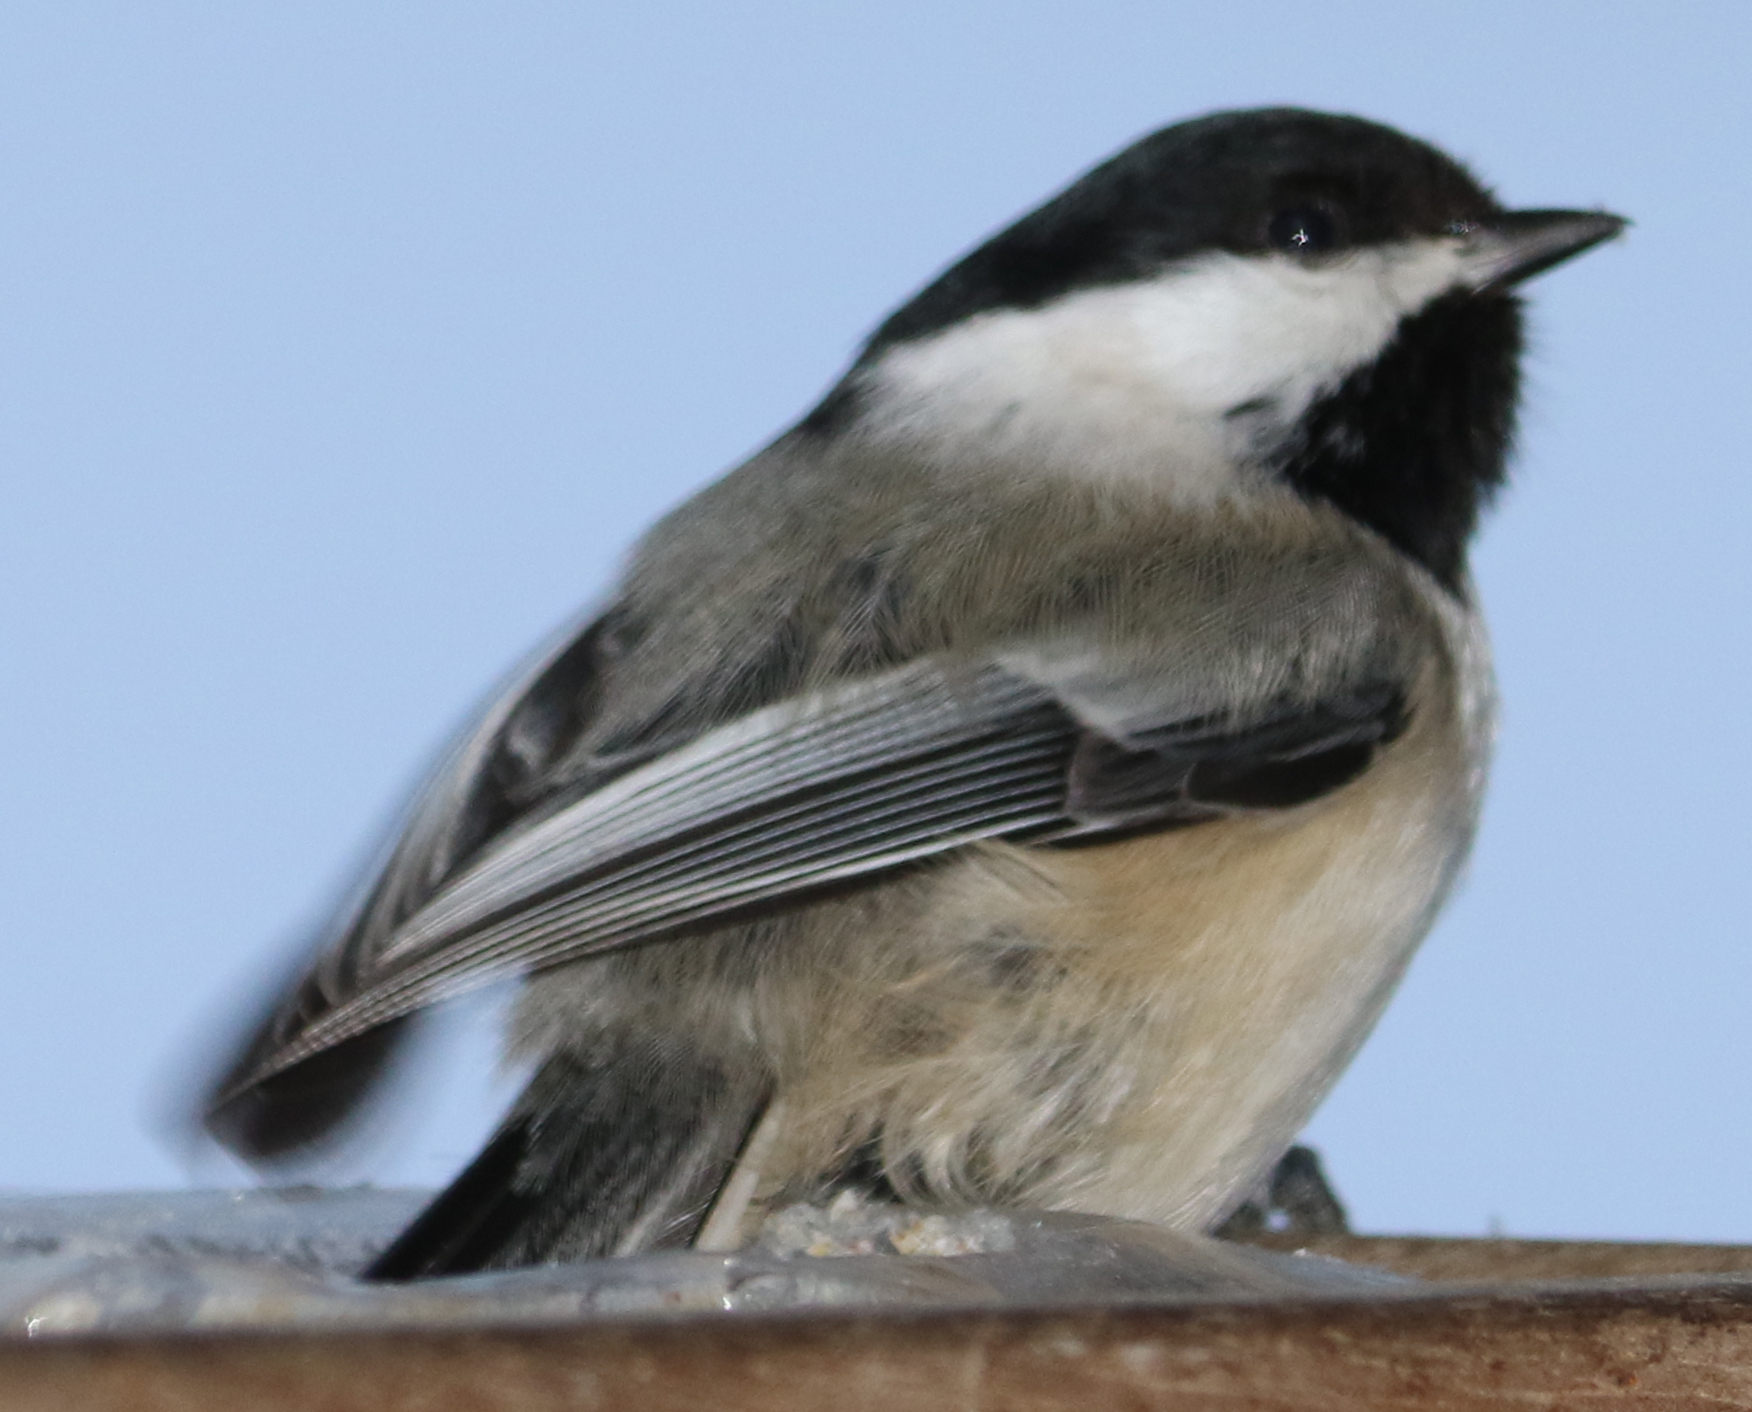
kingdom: Animalia
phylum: Chordata
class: Aves
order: Passeriformes
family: Paridae
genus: Poecile
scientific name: Poecile atricapillus
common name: Black-capped chickadee
